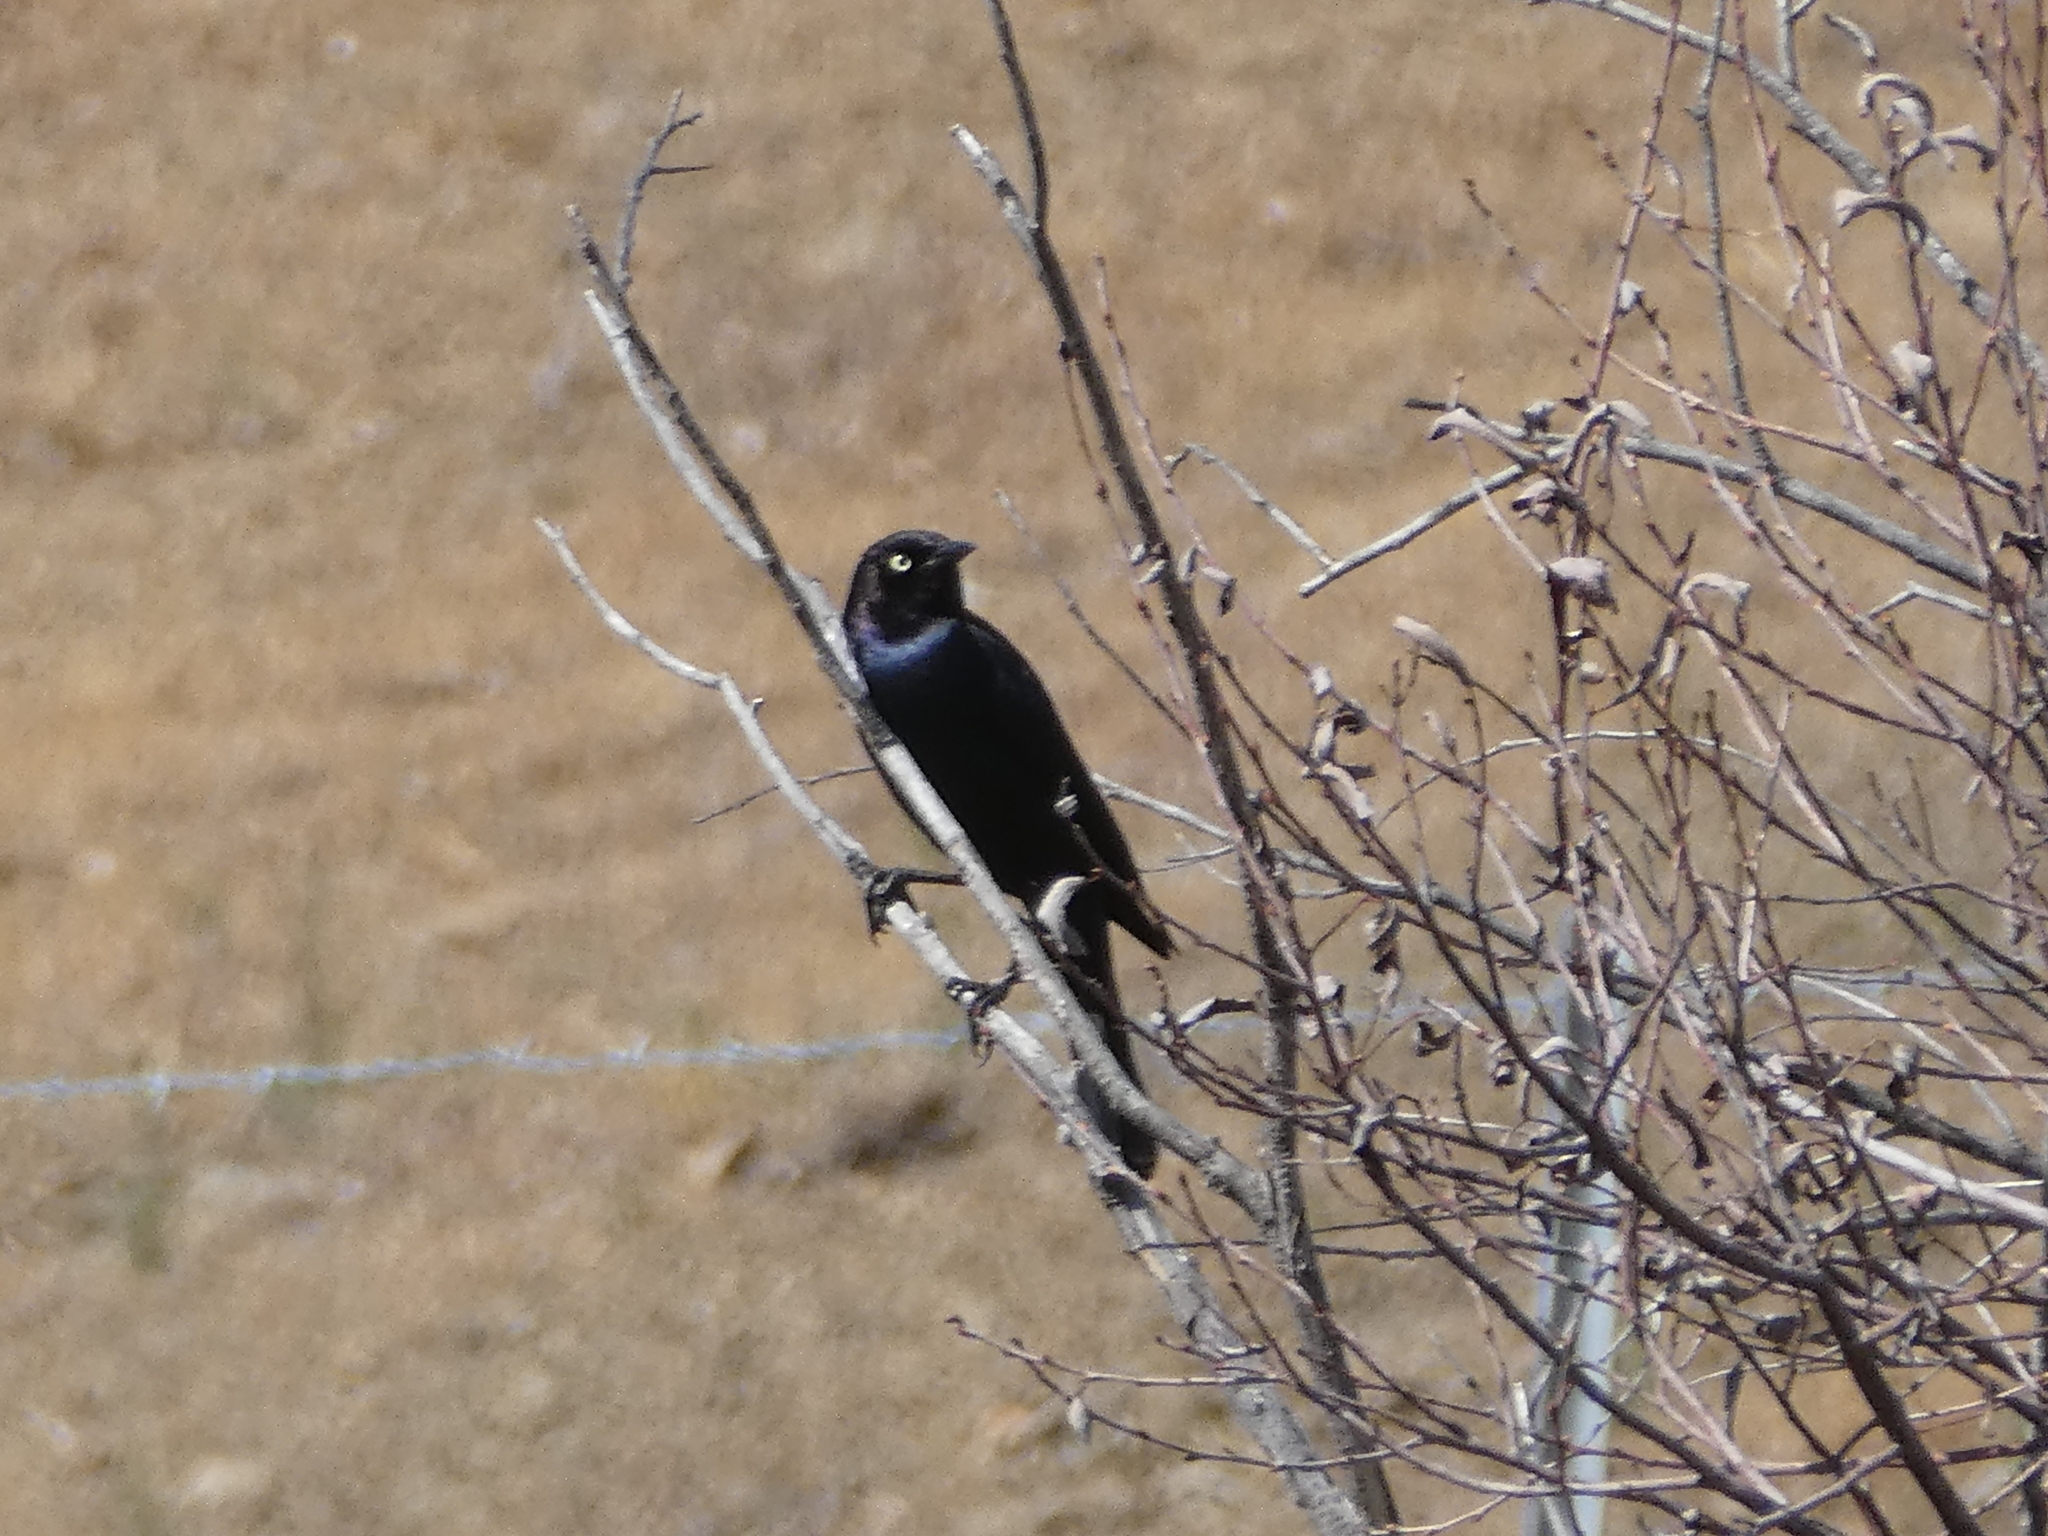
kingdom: Animalia
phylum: Chordata
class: Aves
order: Passeriformes
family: Icteridae
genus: Euphagus
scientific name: Euphagus cyanocephalus
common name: Brewer's blackbird
